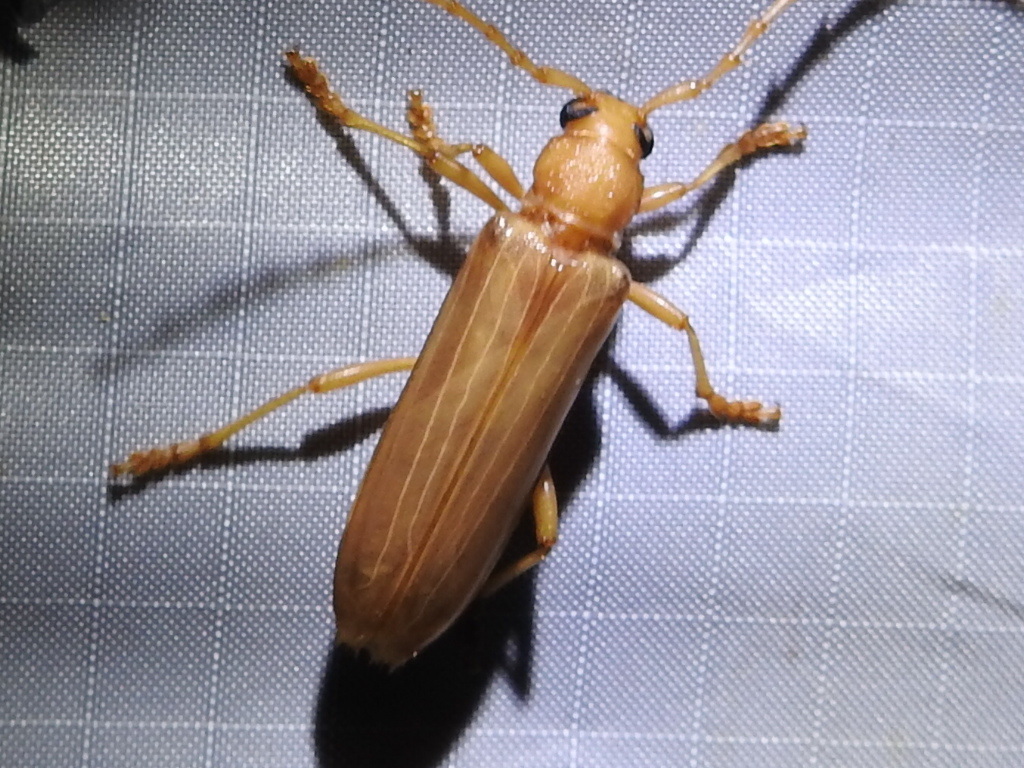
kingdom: Animalia
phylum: Arthropoda
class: Insecta
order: Coleoptera
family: Cerambycidae
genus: Atylostagma
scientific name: Atylostagma polita
